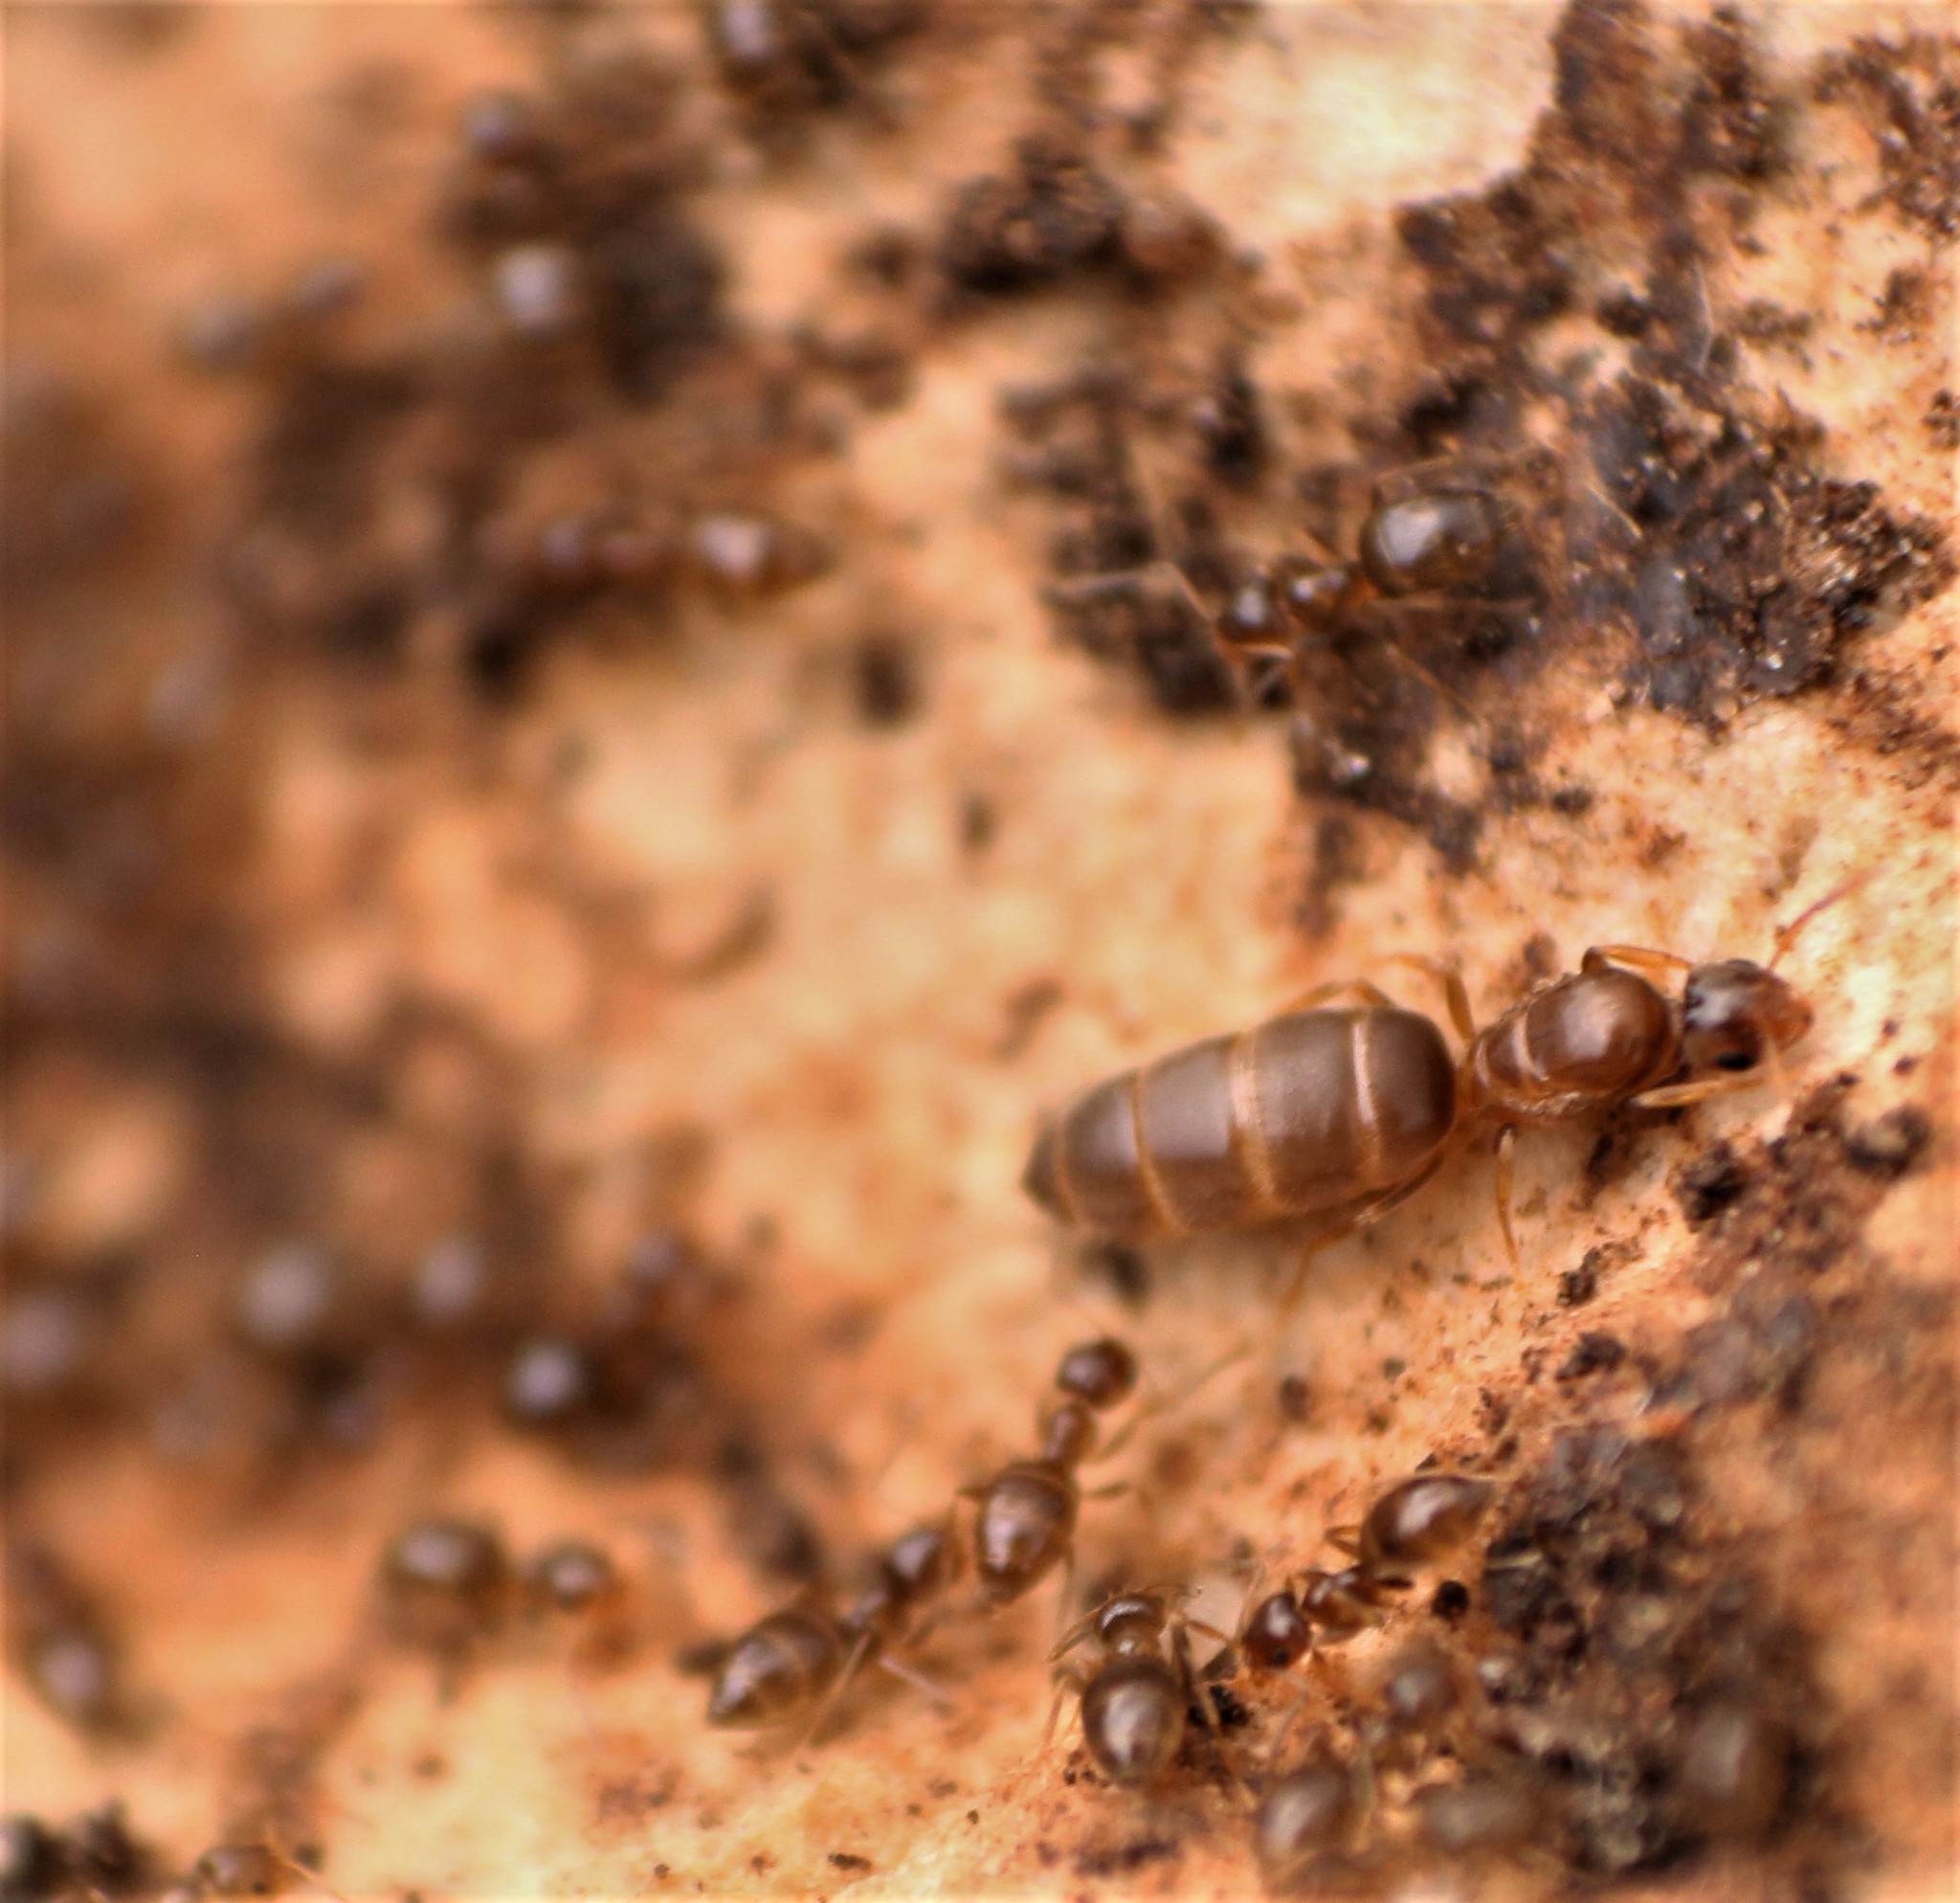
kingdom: Animalia
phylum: Arthropoda
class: Insecta
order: Hymenoptera
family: Formicidae
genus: Brachymyrmex
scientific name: Brachymyrmex
